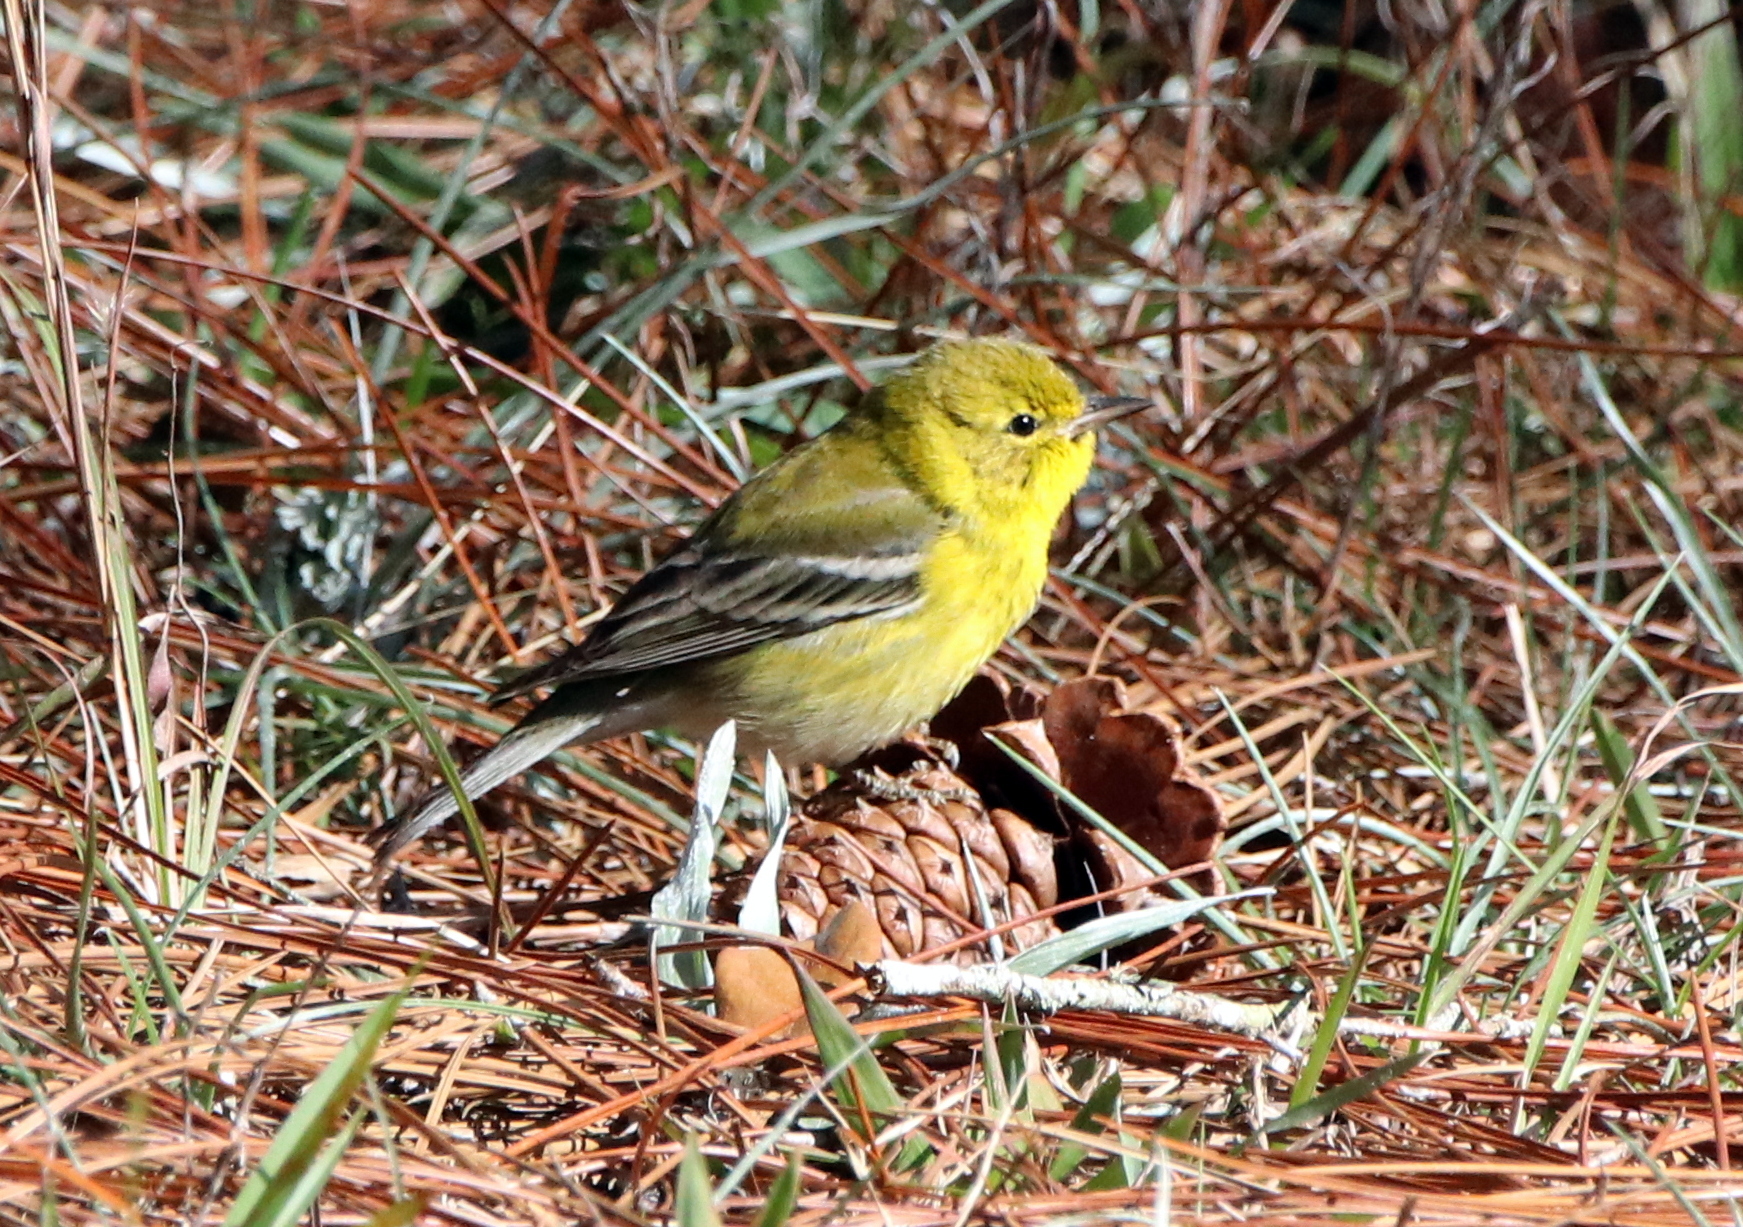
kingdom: Animalia
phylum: Chordata
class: Aves
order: Passeriformes
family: Parulidae
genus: Setophaga
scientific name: Setophaga pinus
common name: Pine warbler
